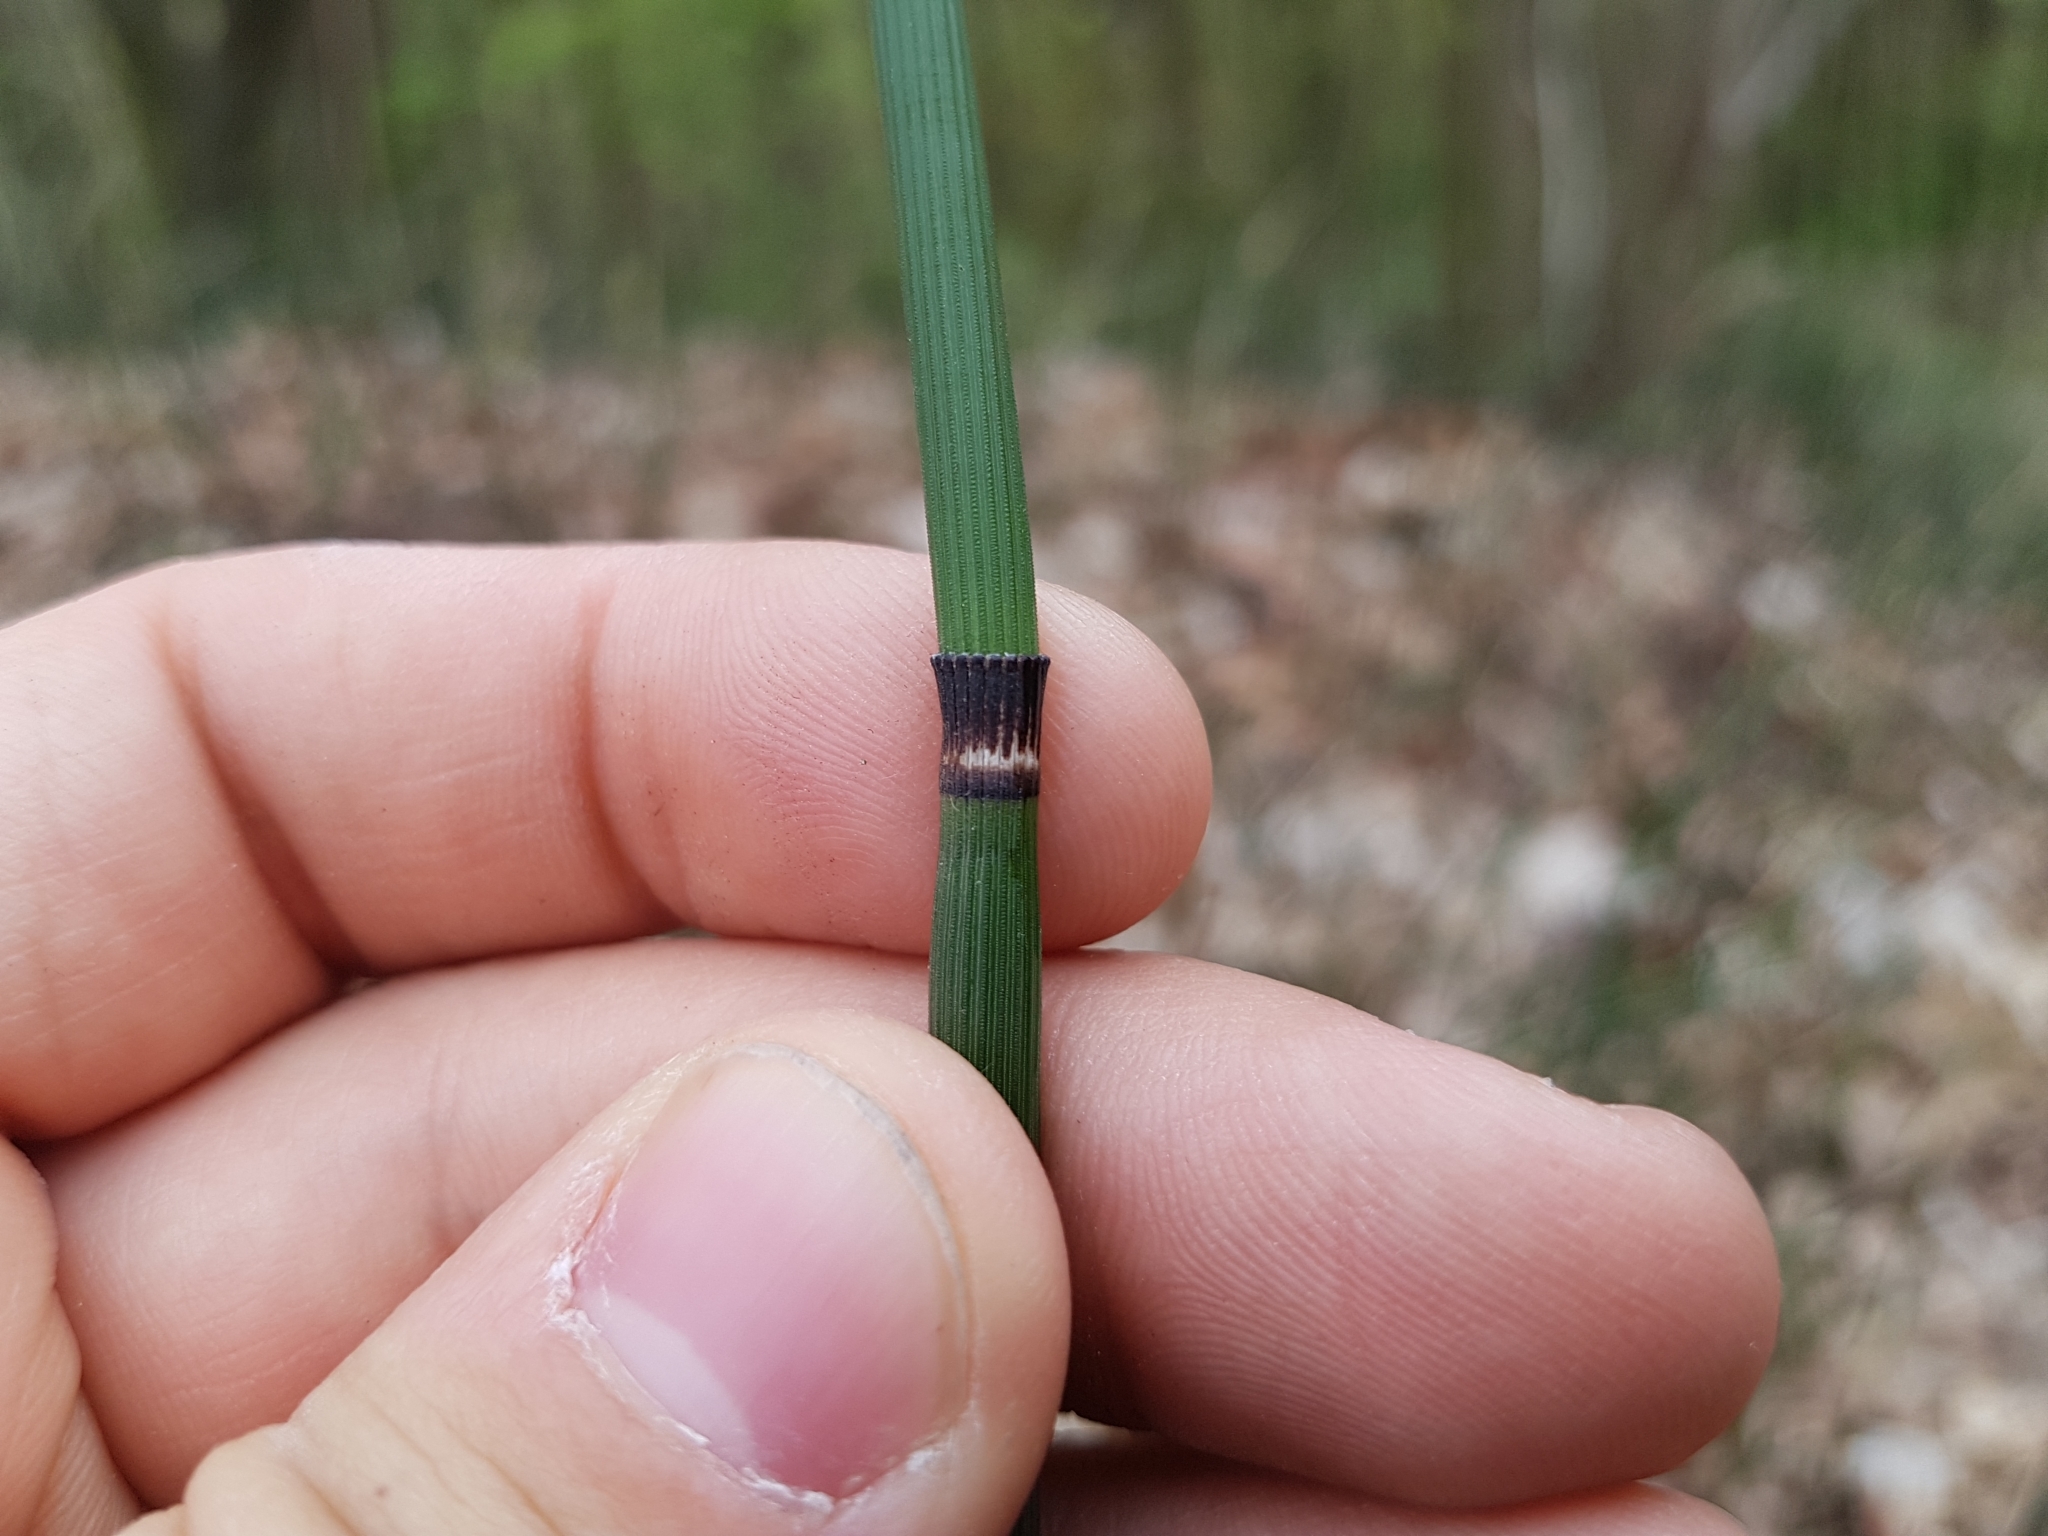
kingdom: Plantae
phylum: Tracheophyta
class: Polypodiopsida
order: Equisetales
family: Equisetaceae
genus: Equisetum
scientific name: Equisetum hyemale
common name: Rough horsetail
